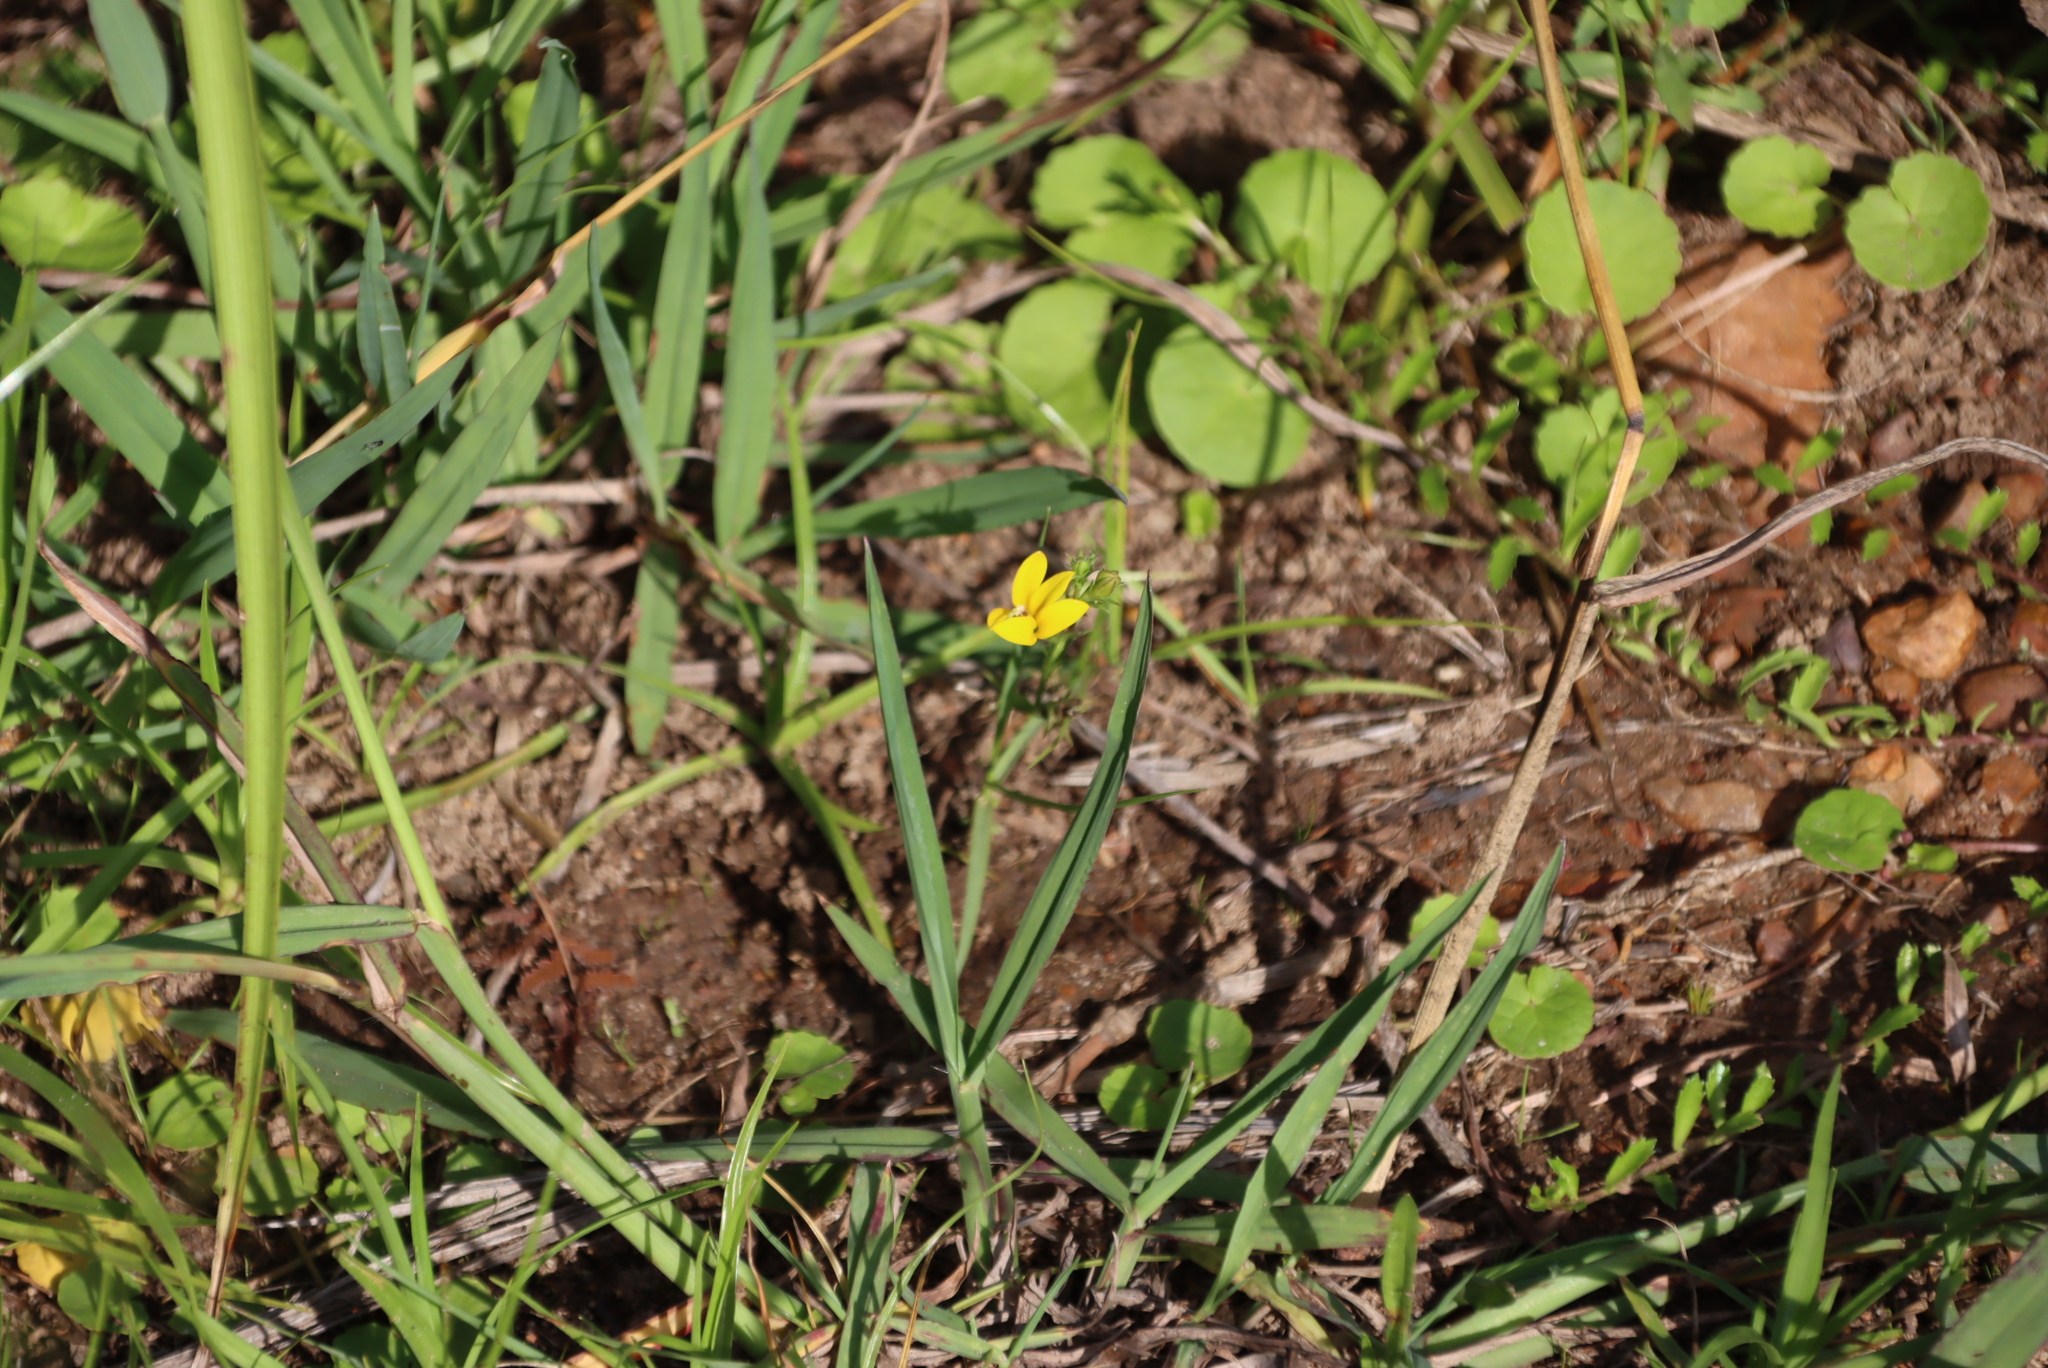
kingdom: Plantae
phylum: Tracheophyta
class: Magnoliopsida
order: Asterales
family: Campanulaceae
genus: Monopsis
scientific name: Monopsis lutea
